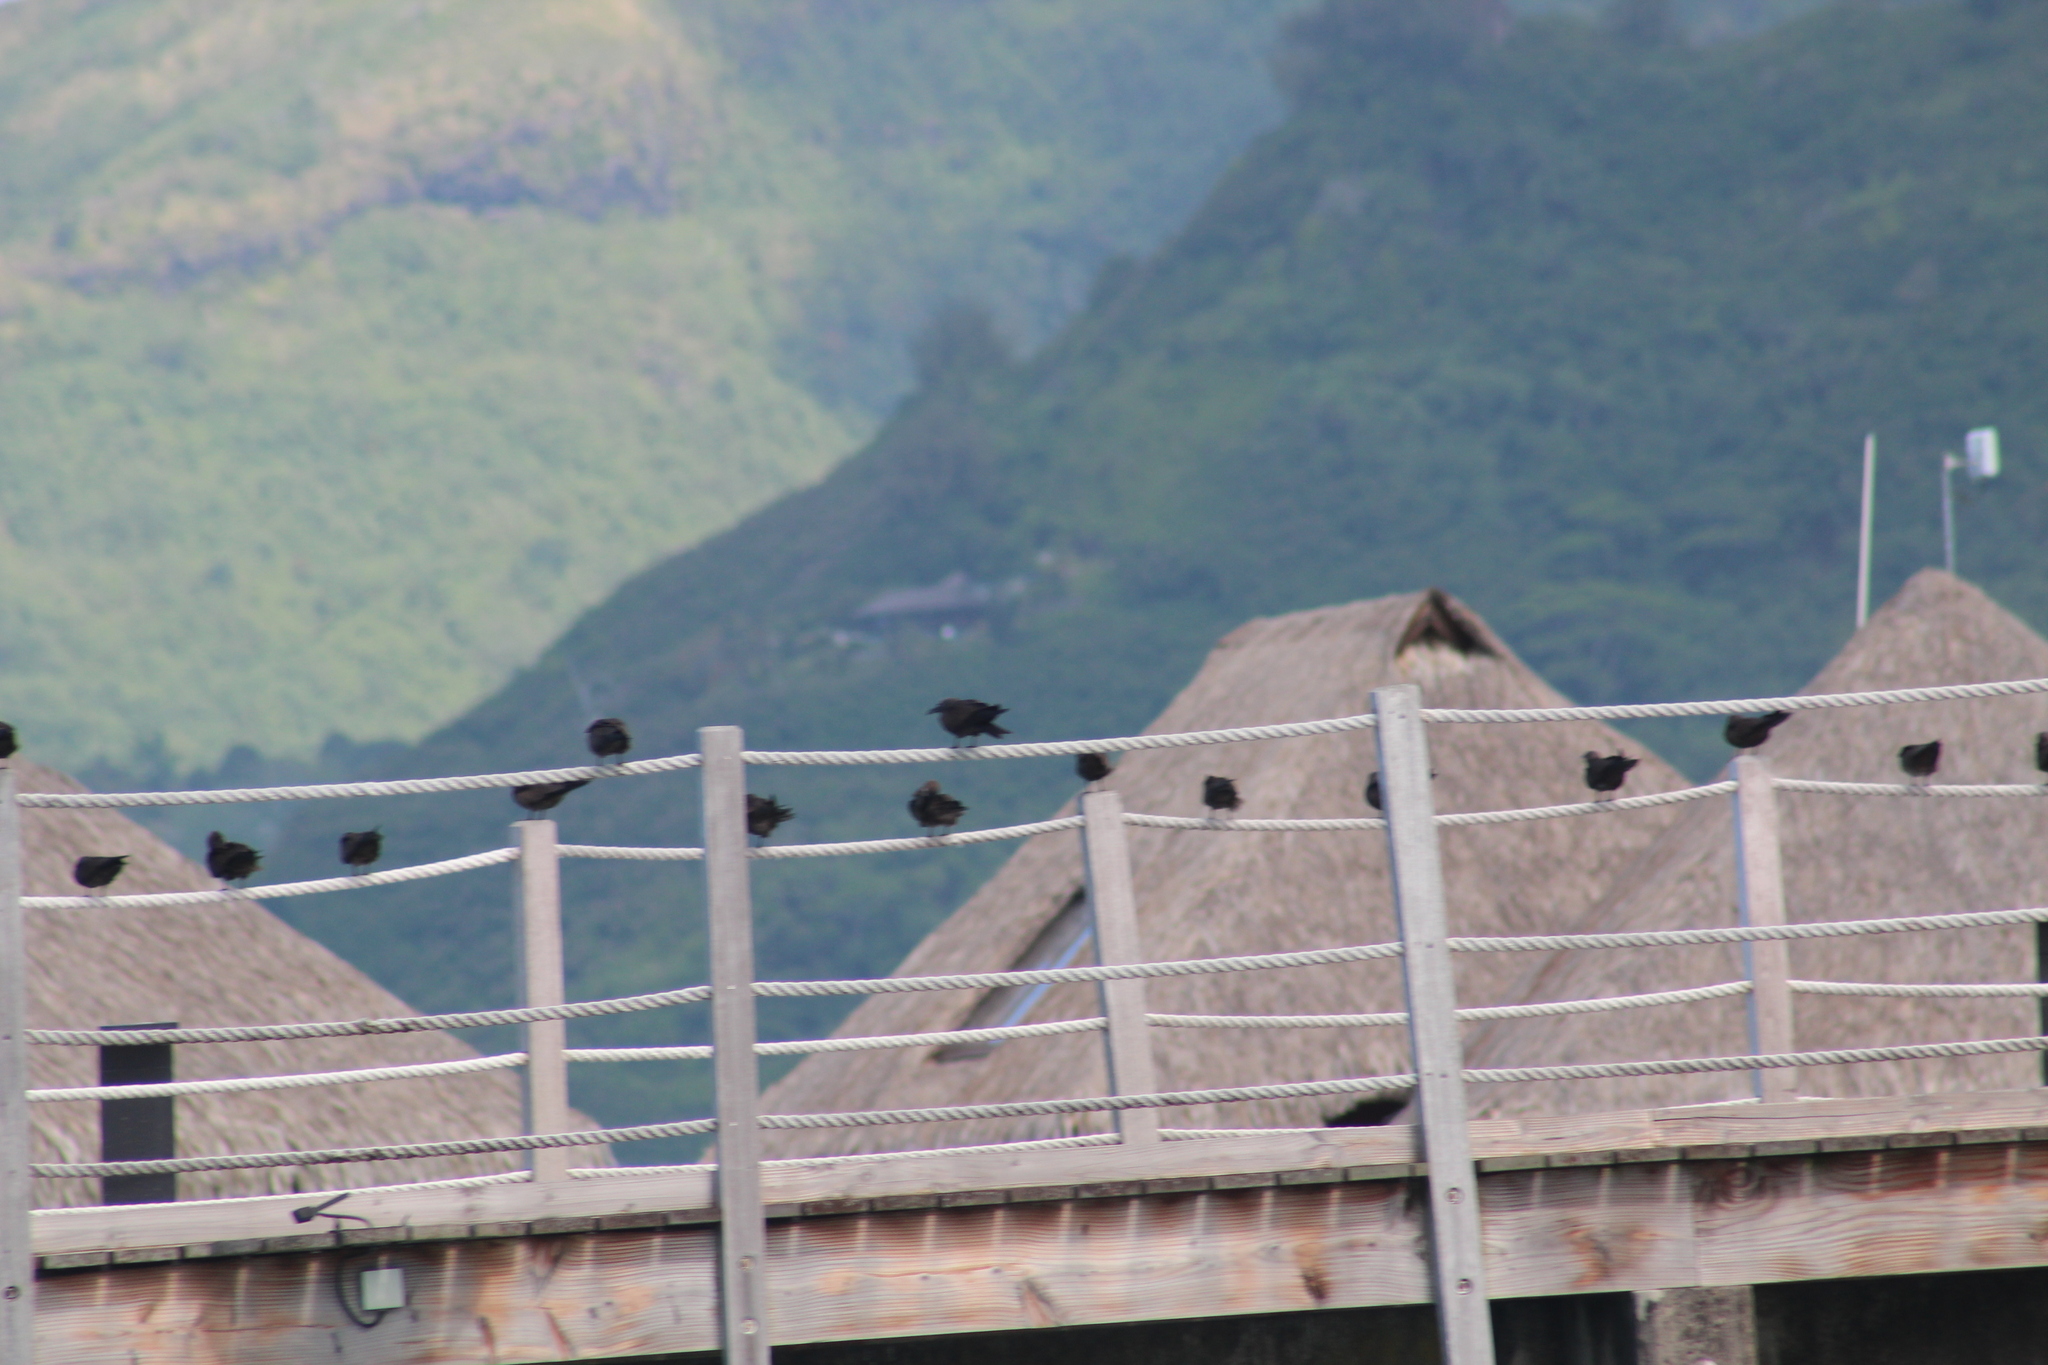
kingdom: Animalia
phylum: Chordata
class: Aves
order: Charadriiformes
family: Laridae
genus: Anous
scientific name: Anous stolidus
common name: Brown noddy
